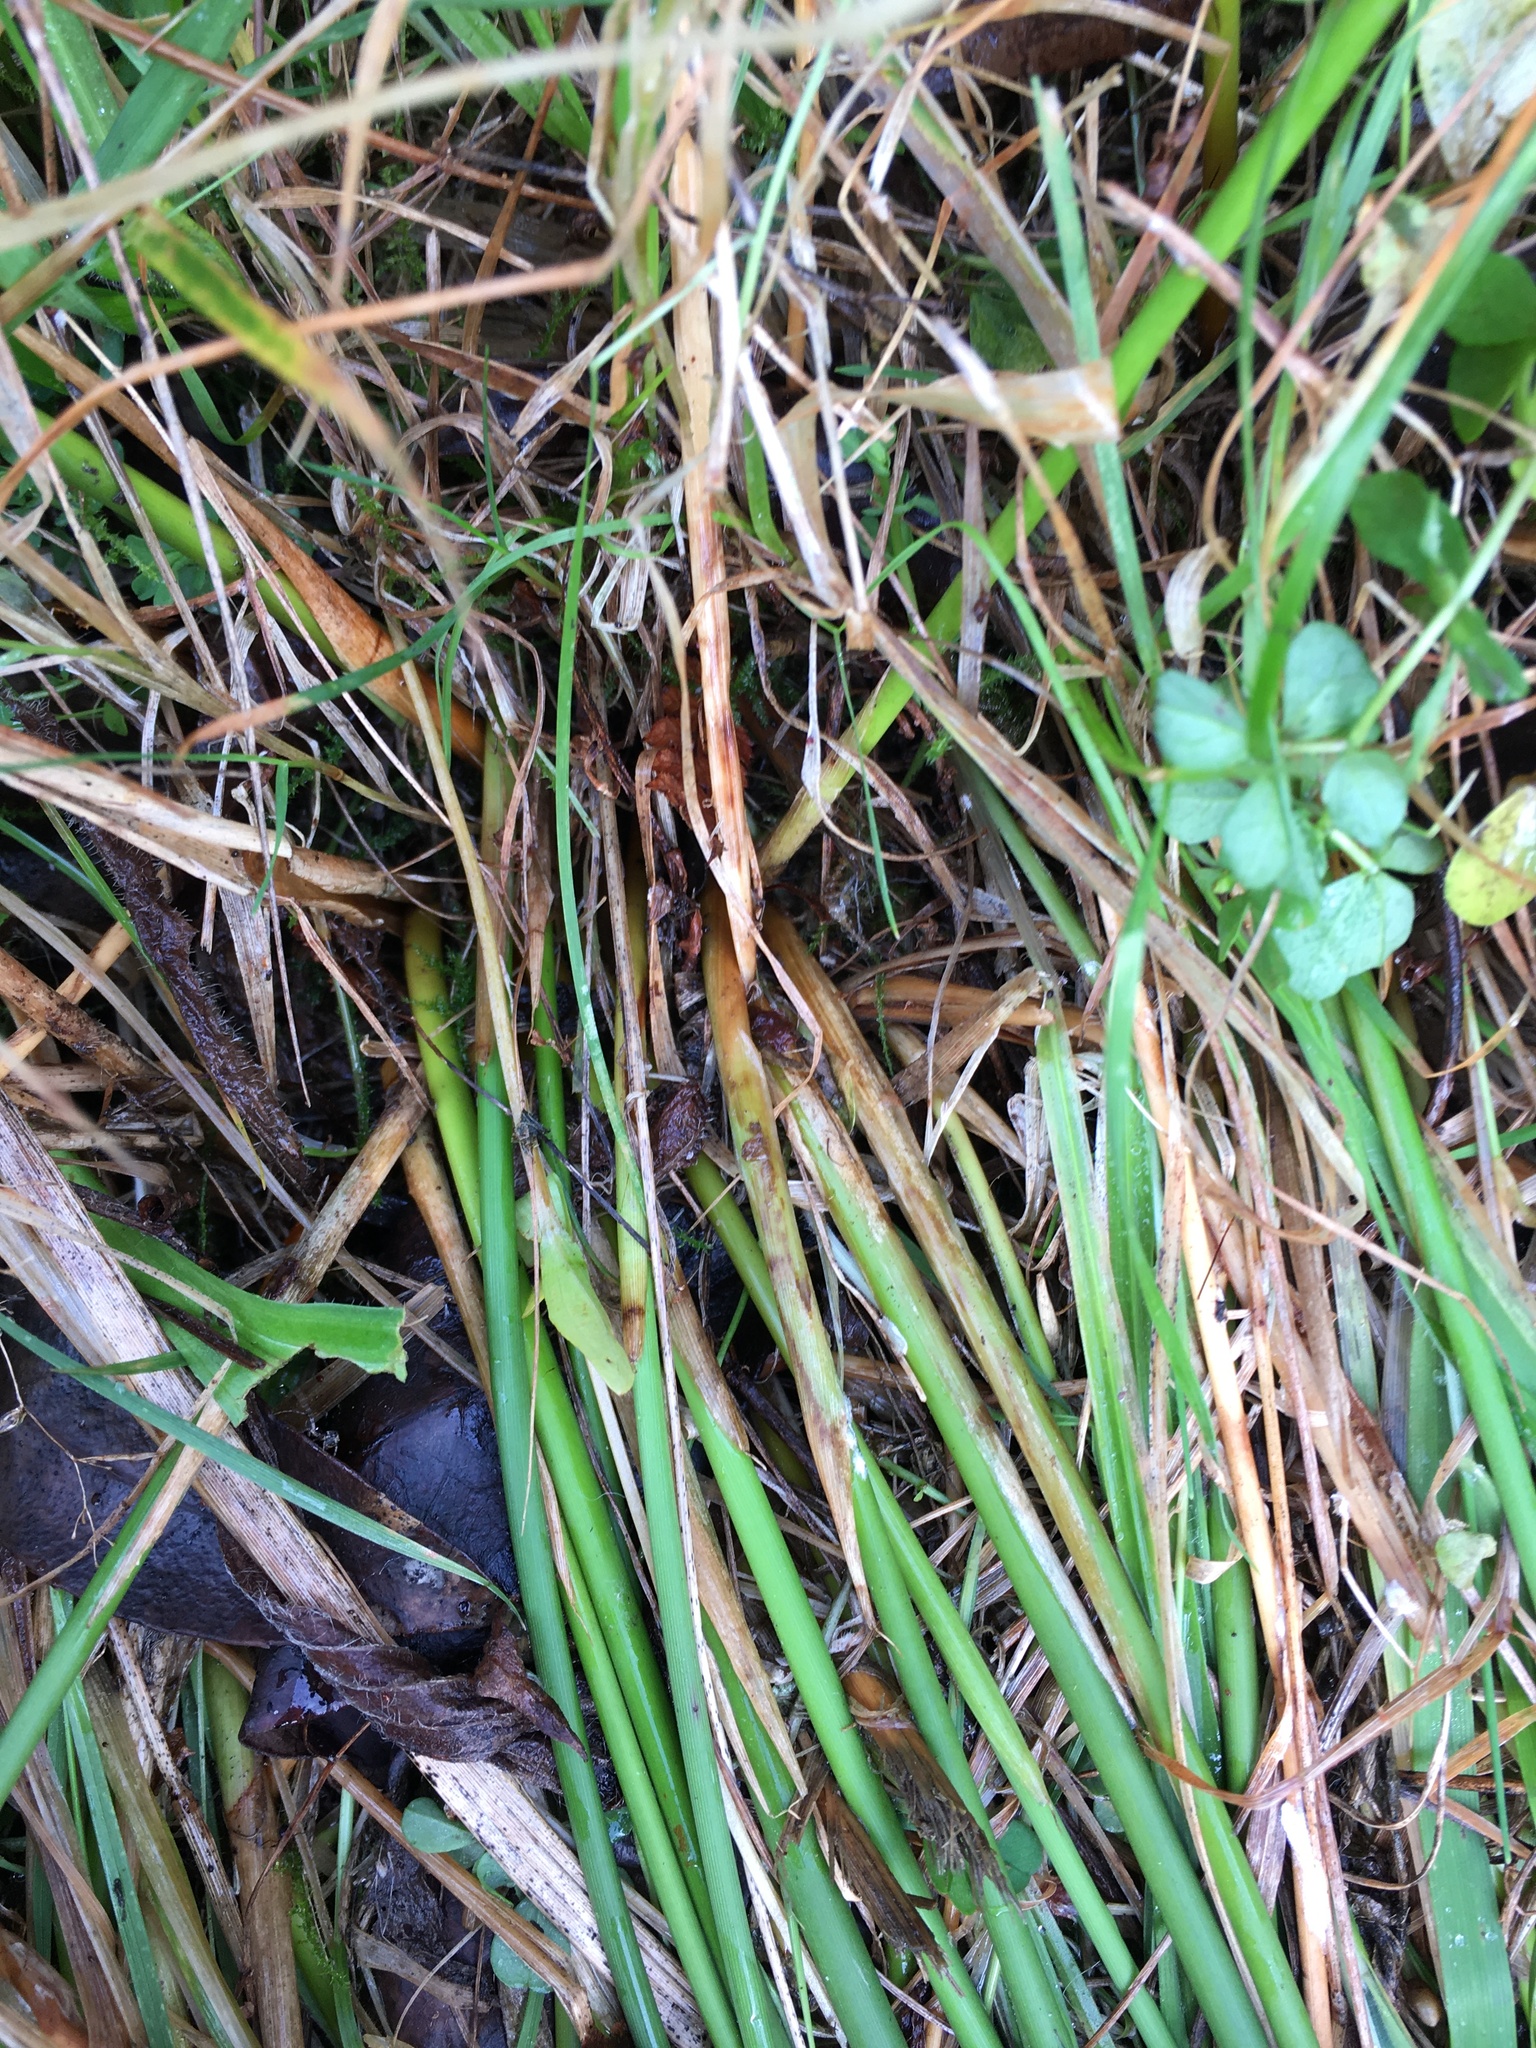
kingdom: Plantae
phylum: Tracheophyta
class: Liliopsida
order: Poales
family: Juncaceae
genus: Juncus
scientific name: Juncus australis
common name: Austral rush
